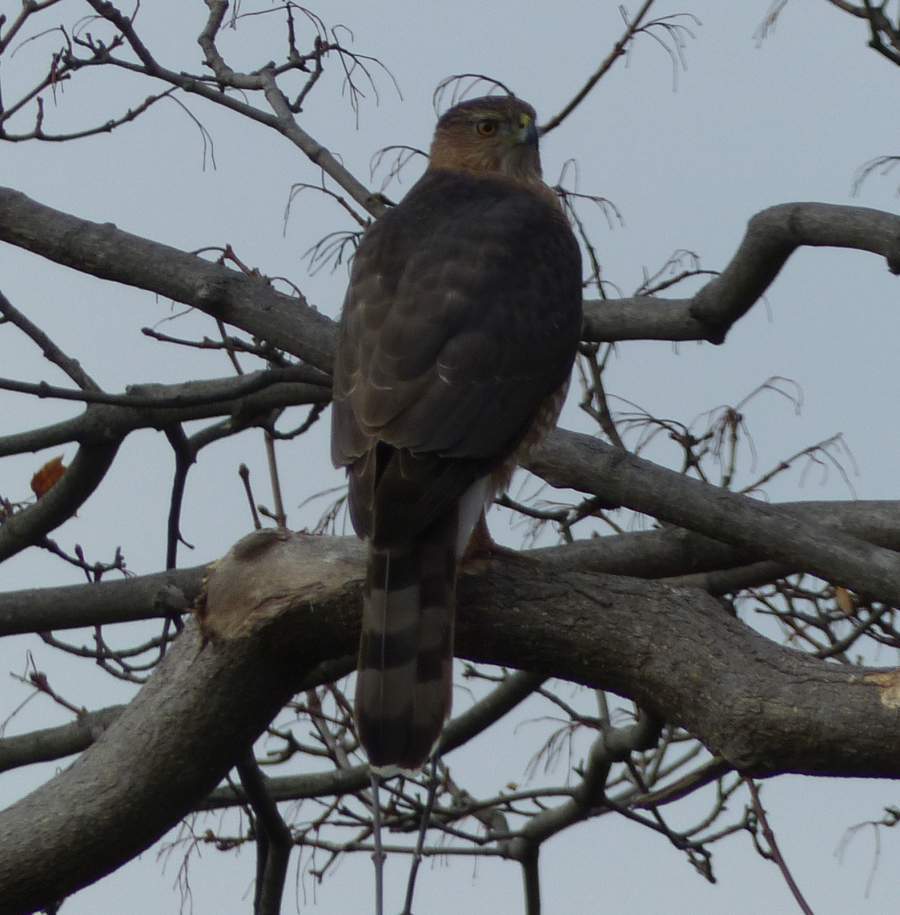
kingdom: Animalia
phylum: Chordata
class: Aves
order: Accipitriformes
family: Accipitridae
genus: Accipiter
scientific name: Accipiter cooperii
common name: Cooper's hawk
